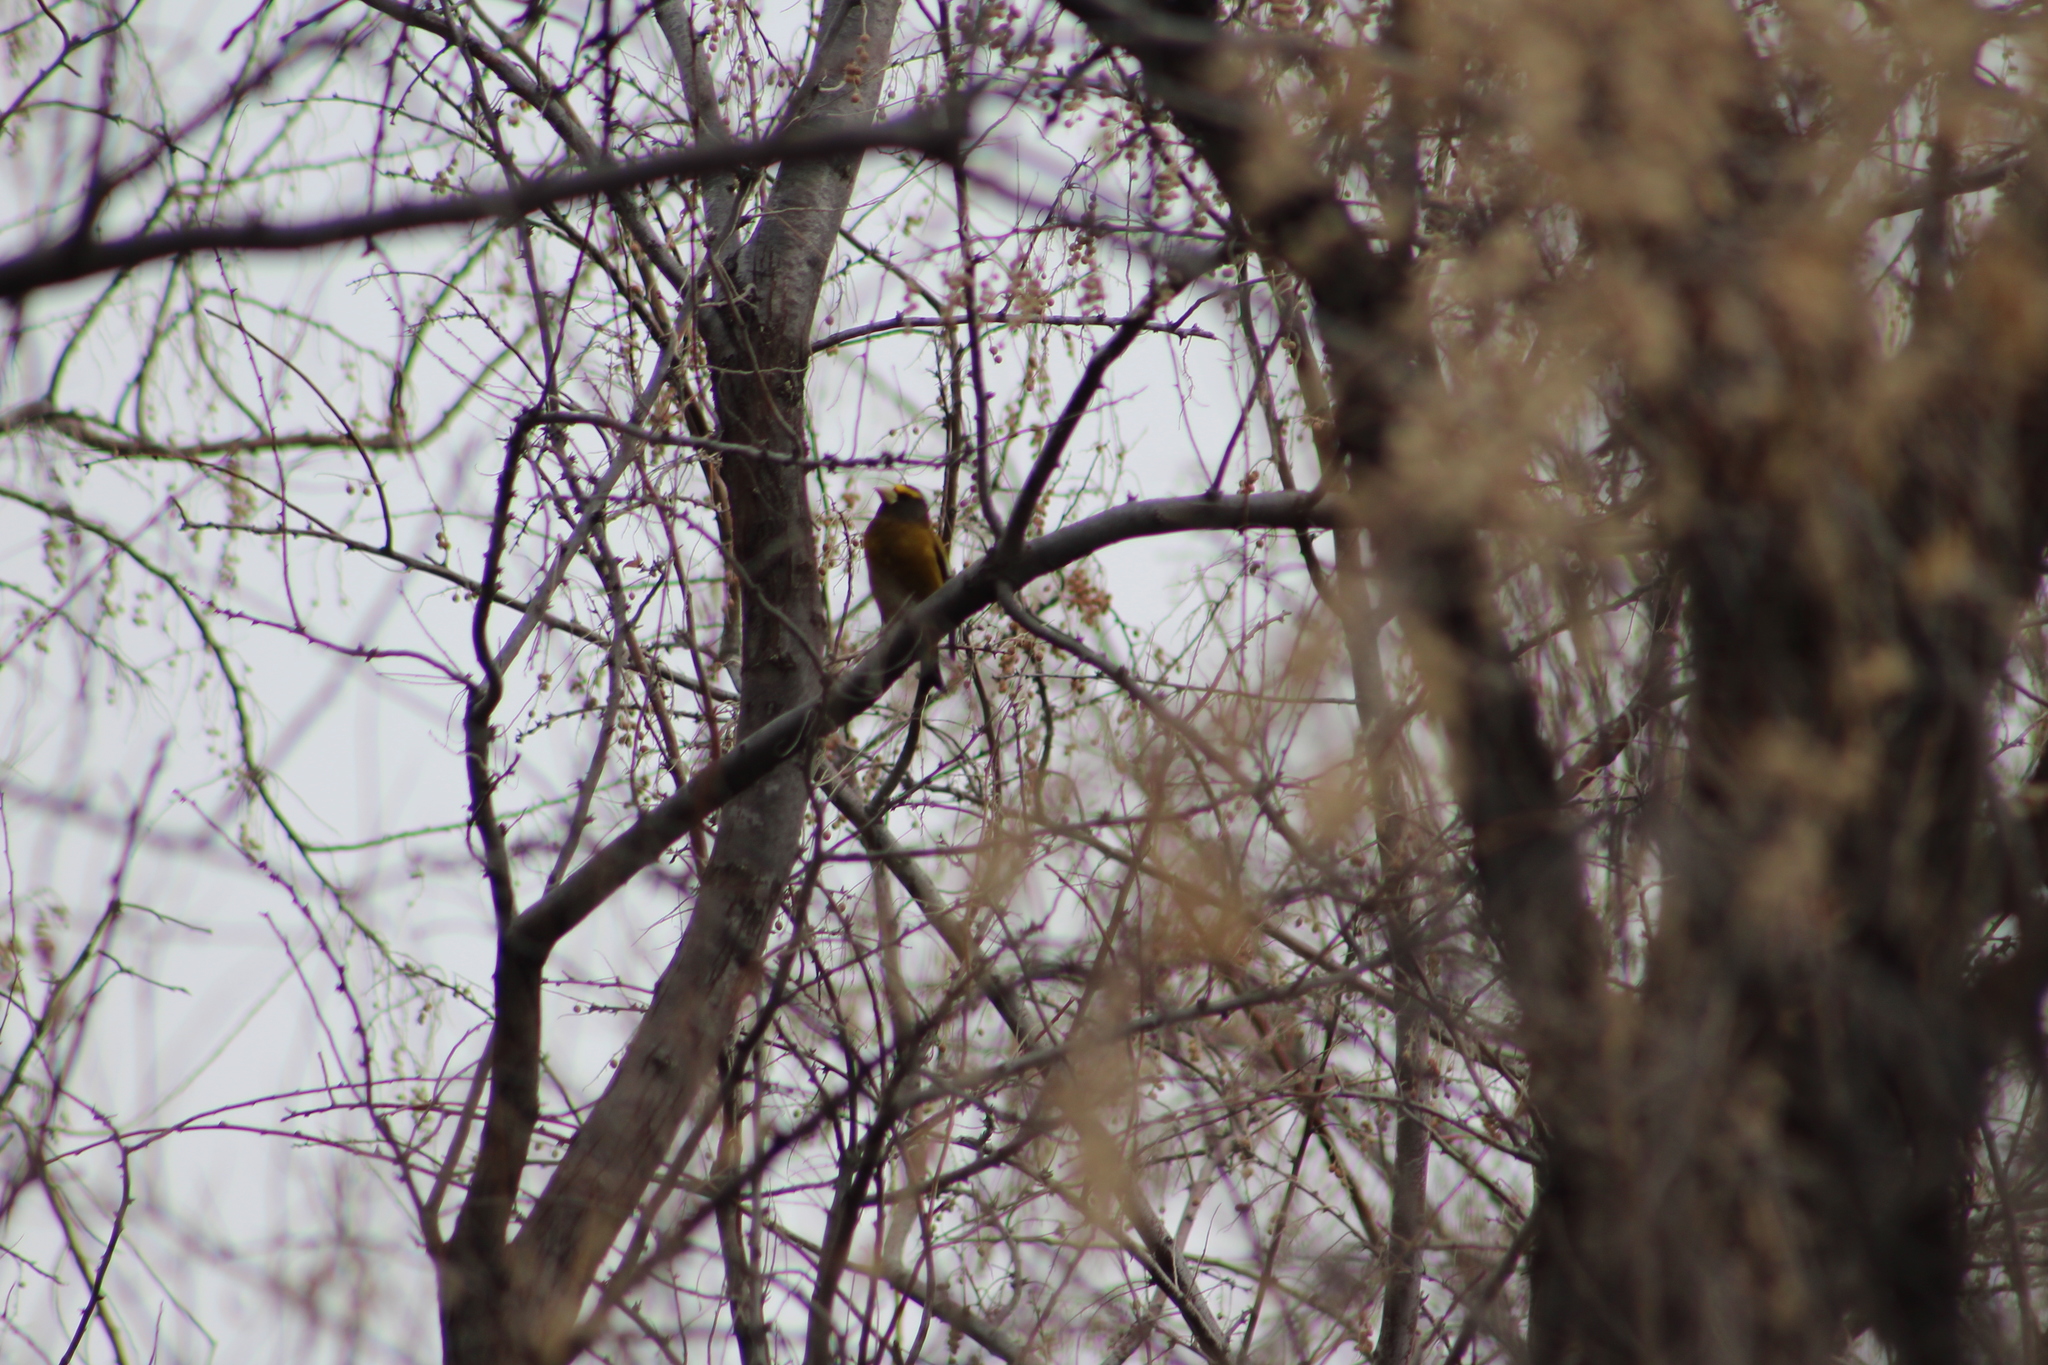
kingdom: Animalia
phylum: Chordata
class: Aves
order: Passeriformes
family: Fringillidae
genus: Hesperiphona
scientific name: Hesperiphona vespertina
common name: Evening grosbeak
